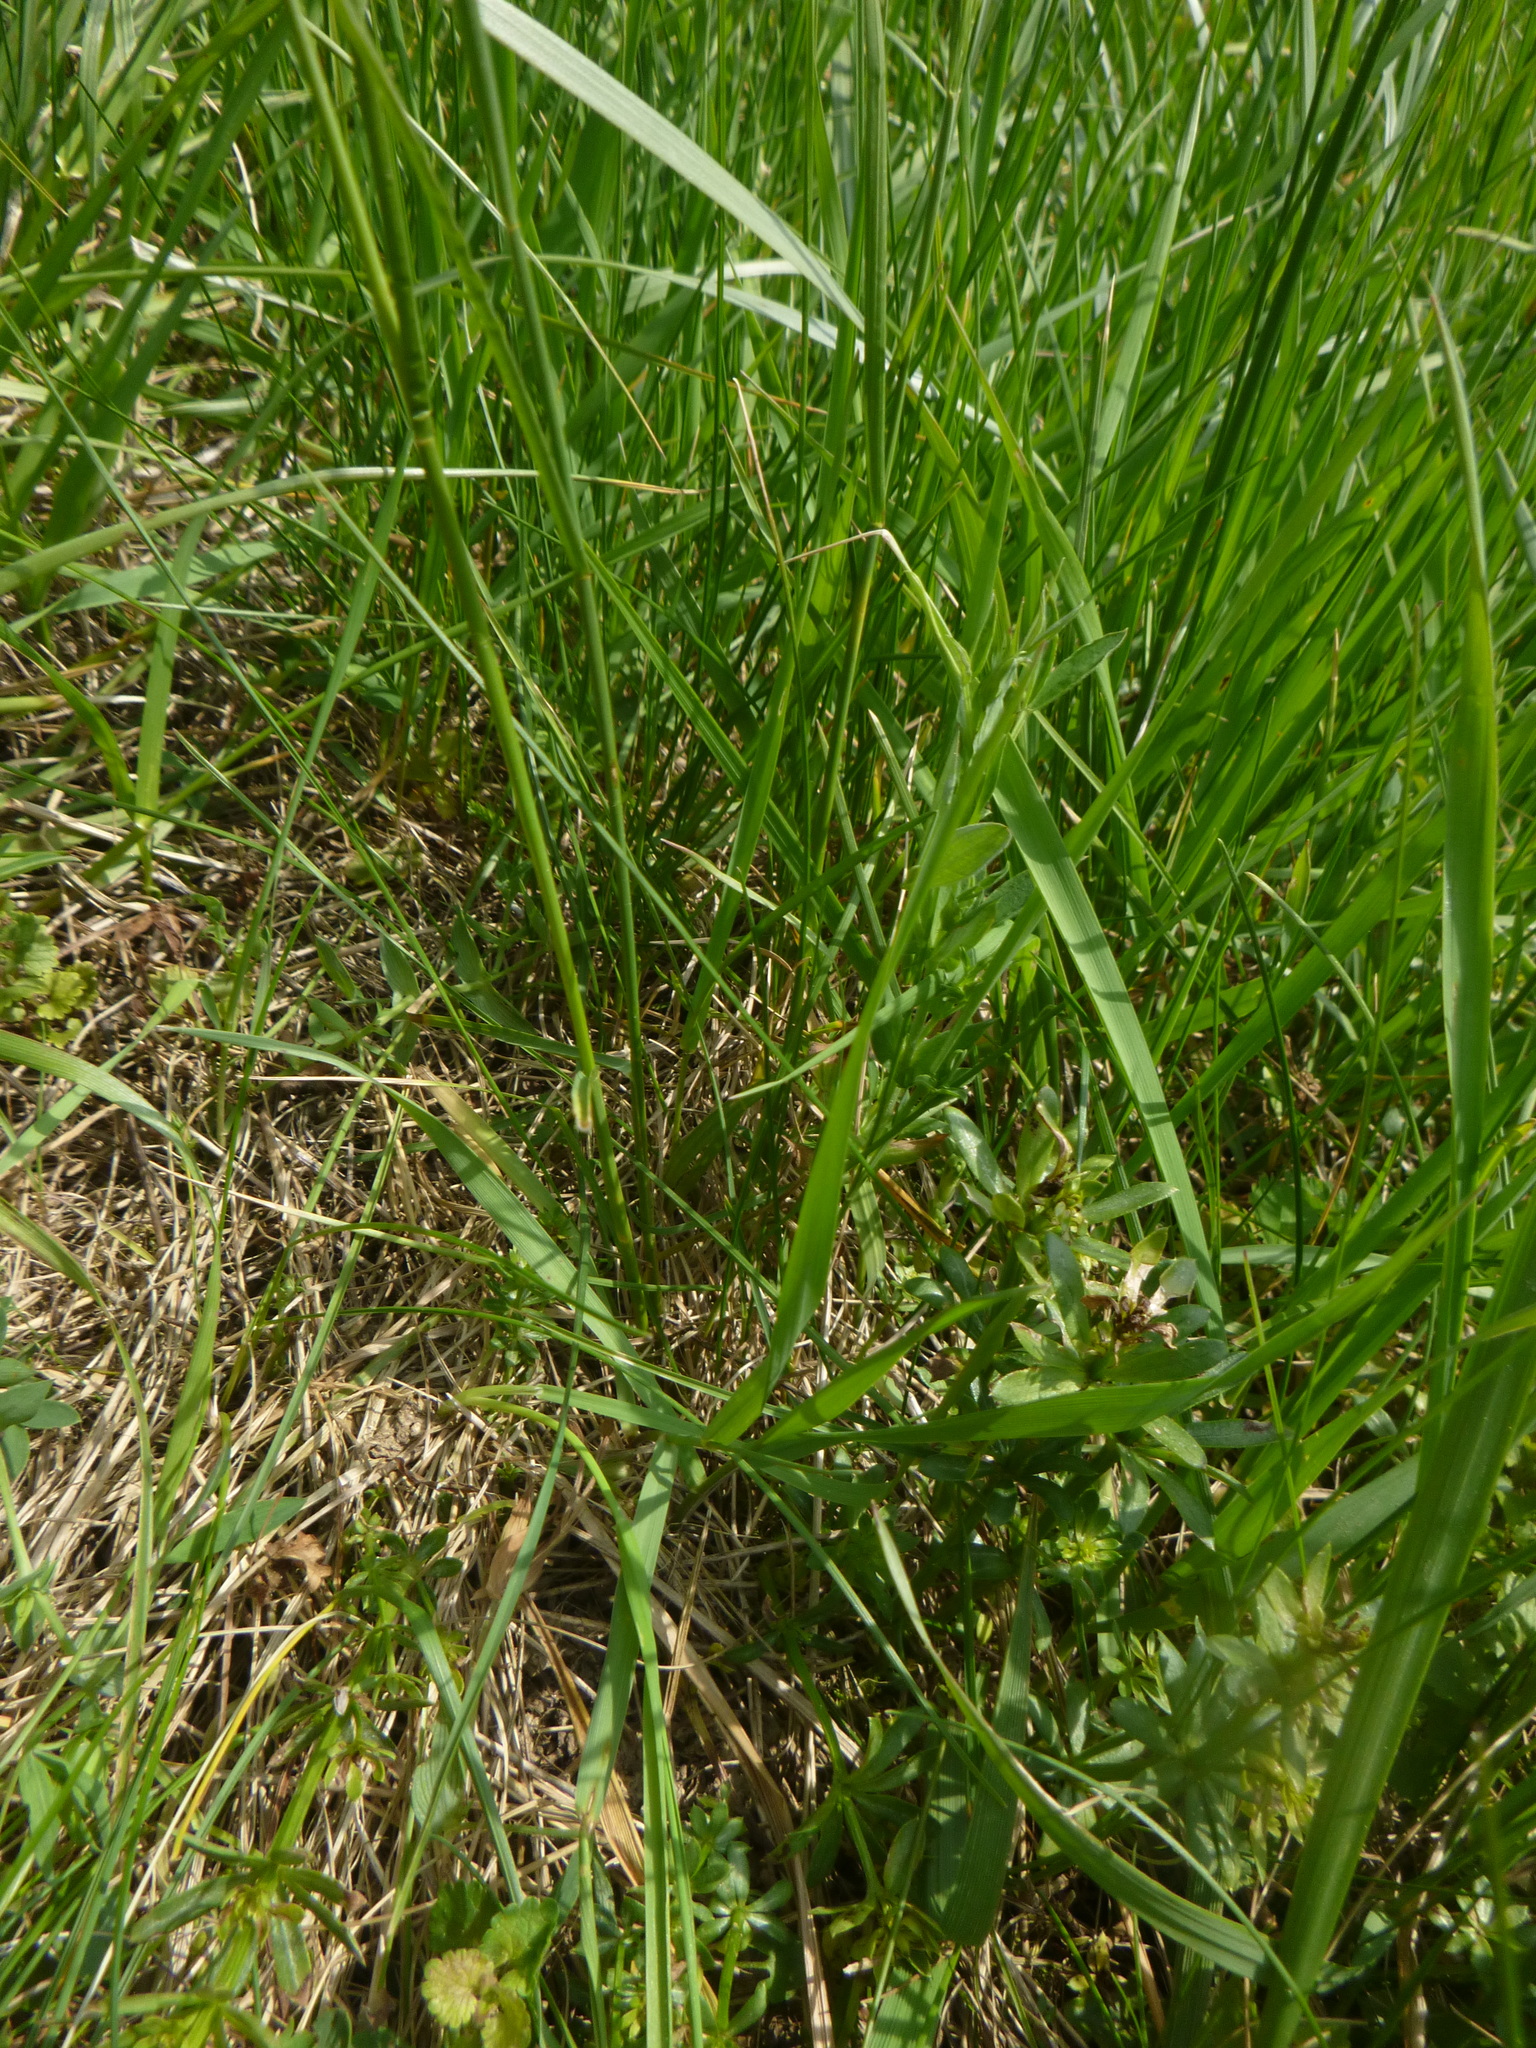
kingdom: Plantae
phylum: Tracheophyta
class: Liliopsida
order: Poales
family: Poaceae
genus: Poa
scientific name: Poa pratensis
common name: Kentucky bluegrass
